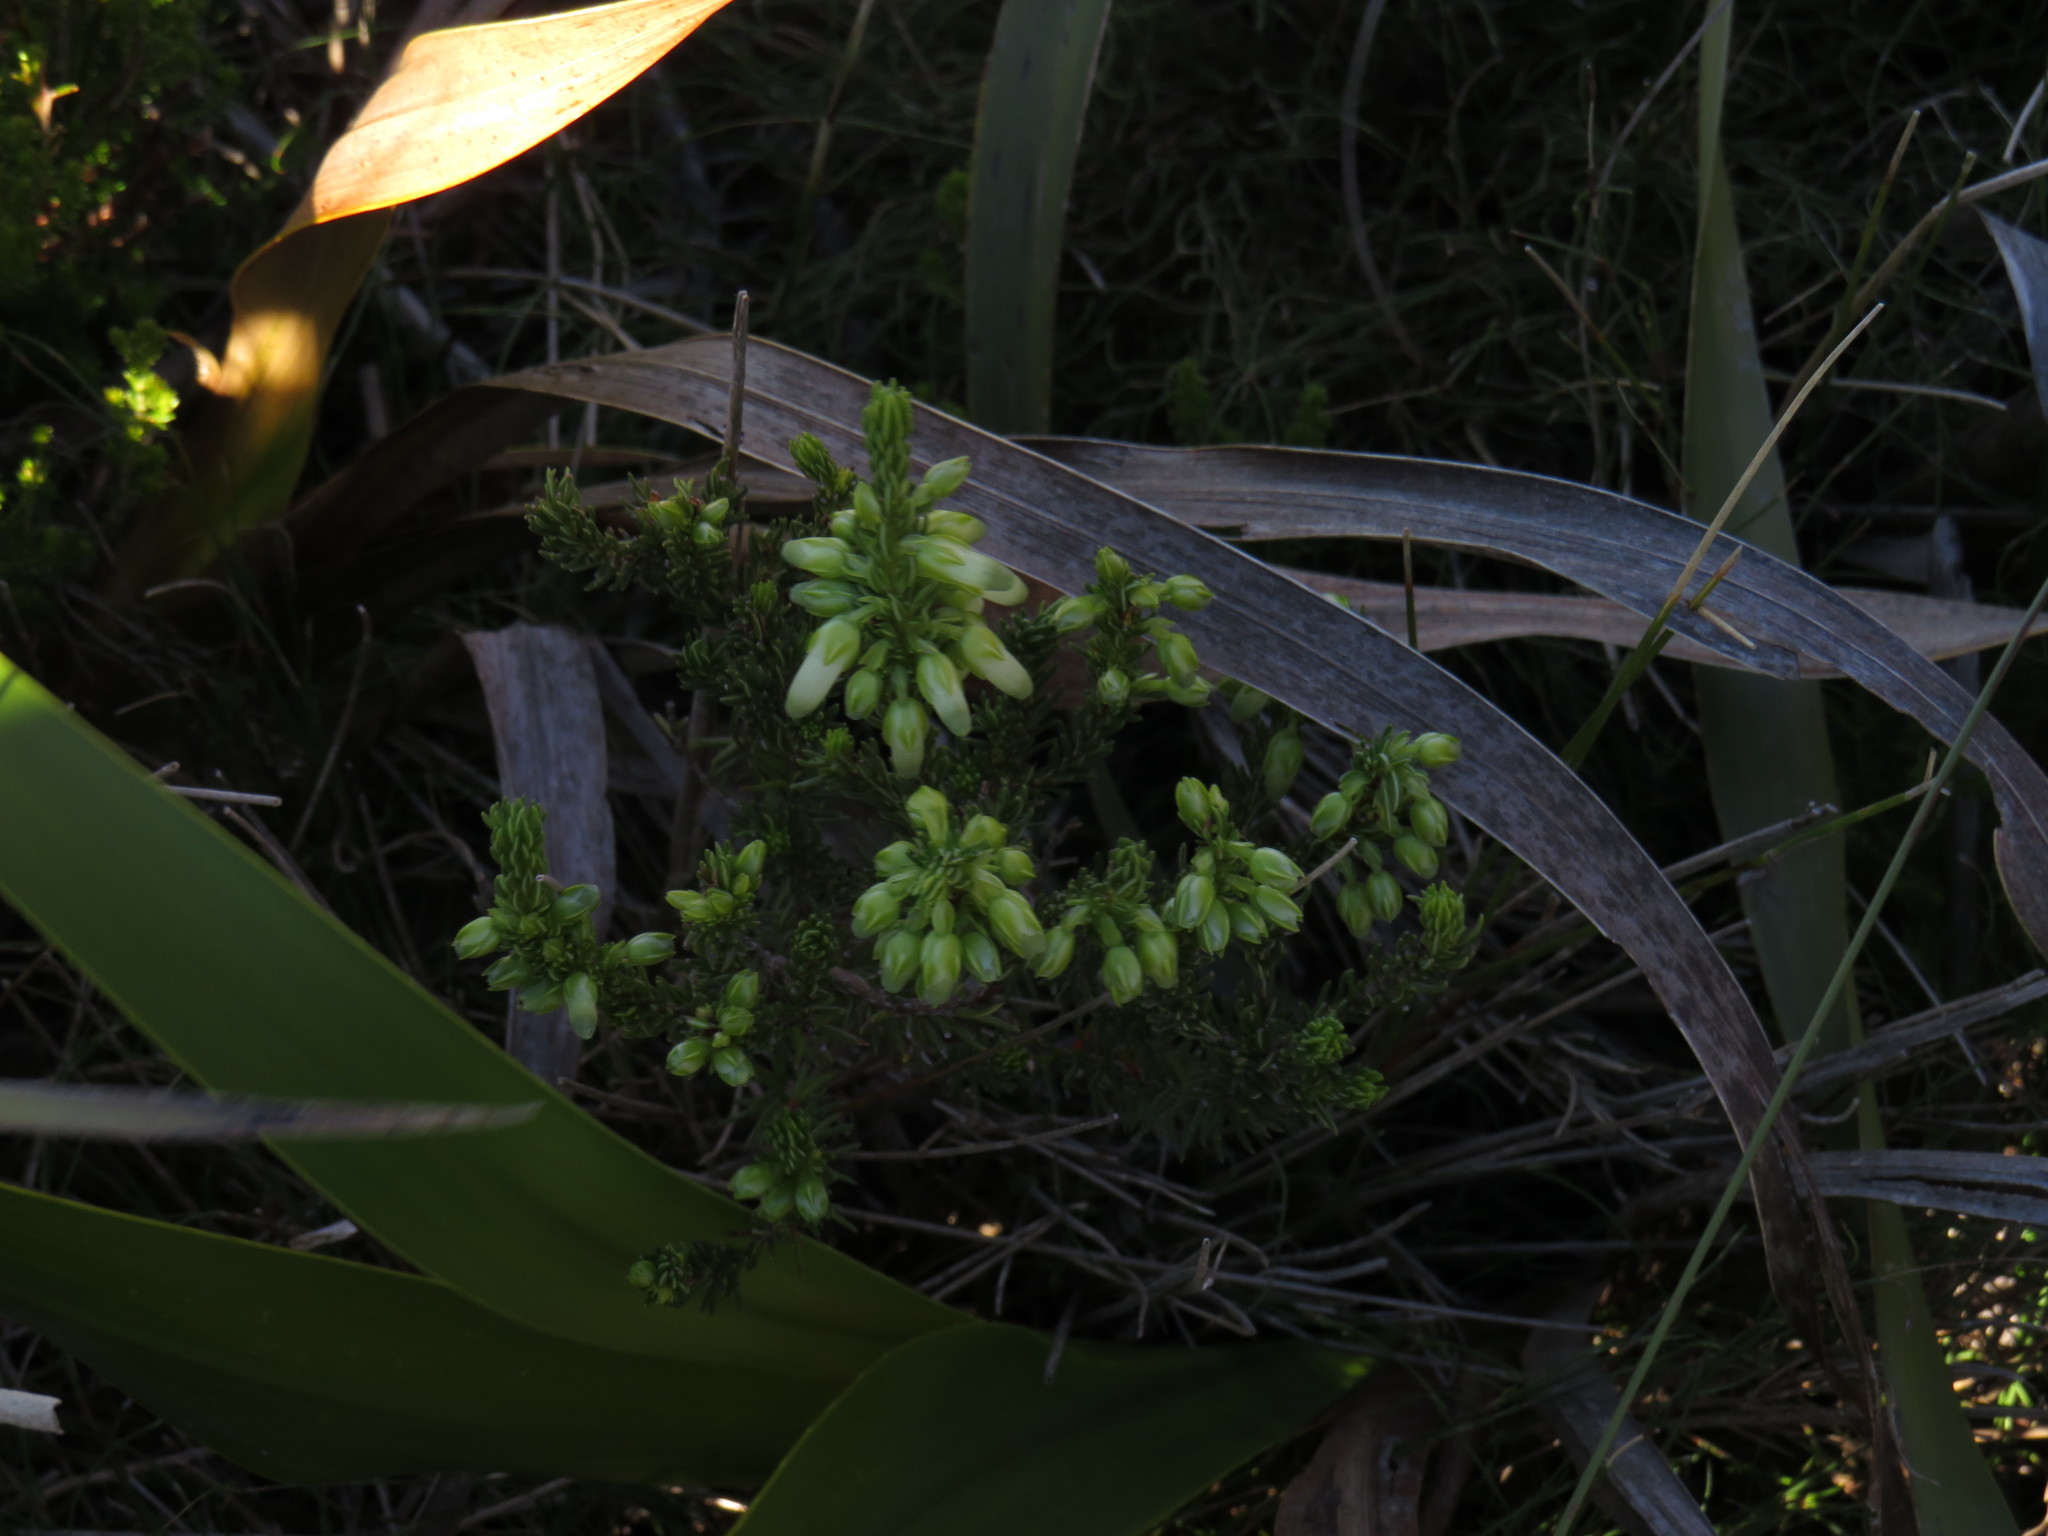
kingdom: Plantae
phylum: Tracheophyta
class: Magnoliopsida
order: Ericales
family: Ericaceae
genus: Erica
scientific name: Erica mammosa
